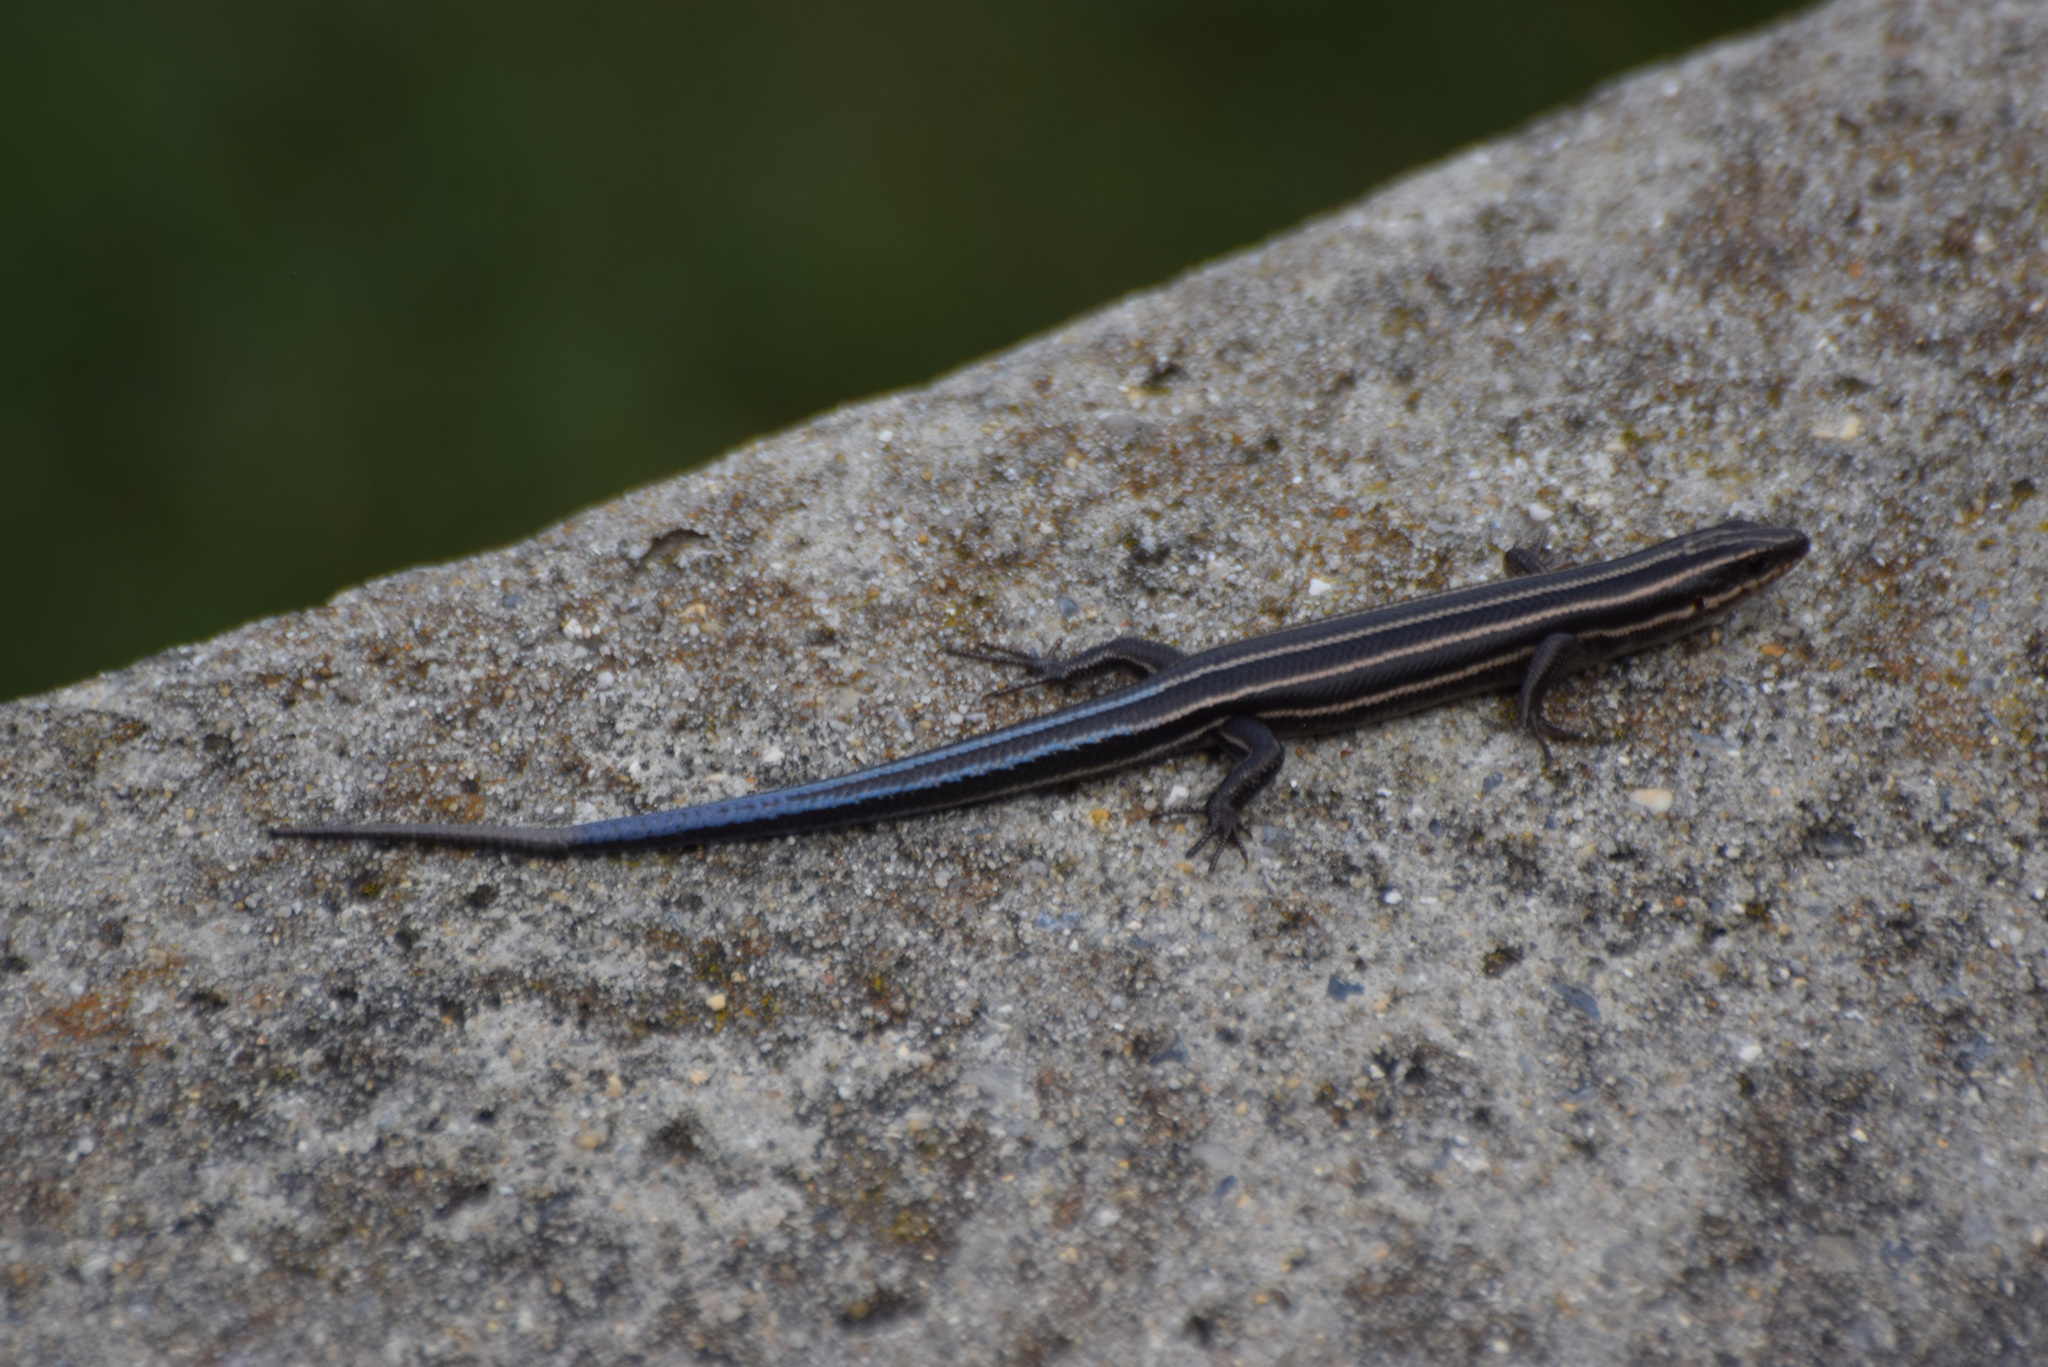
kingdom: Animalia
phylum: Chordata
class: Squamata
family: Scincidae
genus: Plestiodon
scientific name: Plestiodon fasciatus
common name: Five-lined skink
